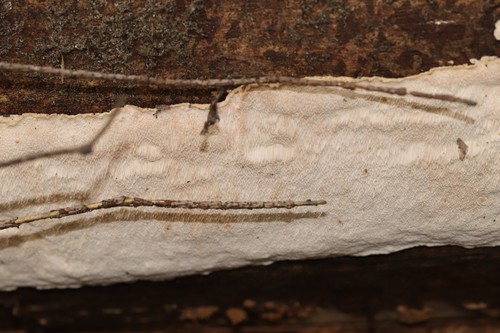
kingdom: Fungi
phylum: Basidiomycota
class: Agaricomycetes
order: Polyporales
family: Incrustoporiaceae
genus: Skeletocutis
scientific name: Skeletocutis
